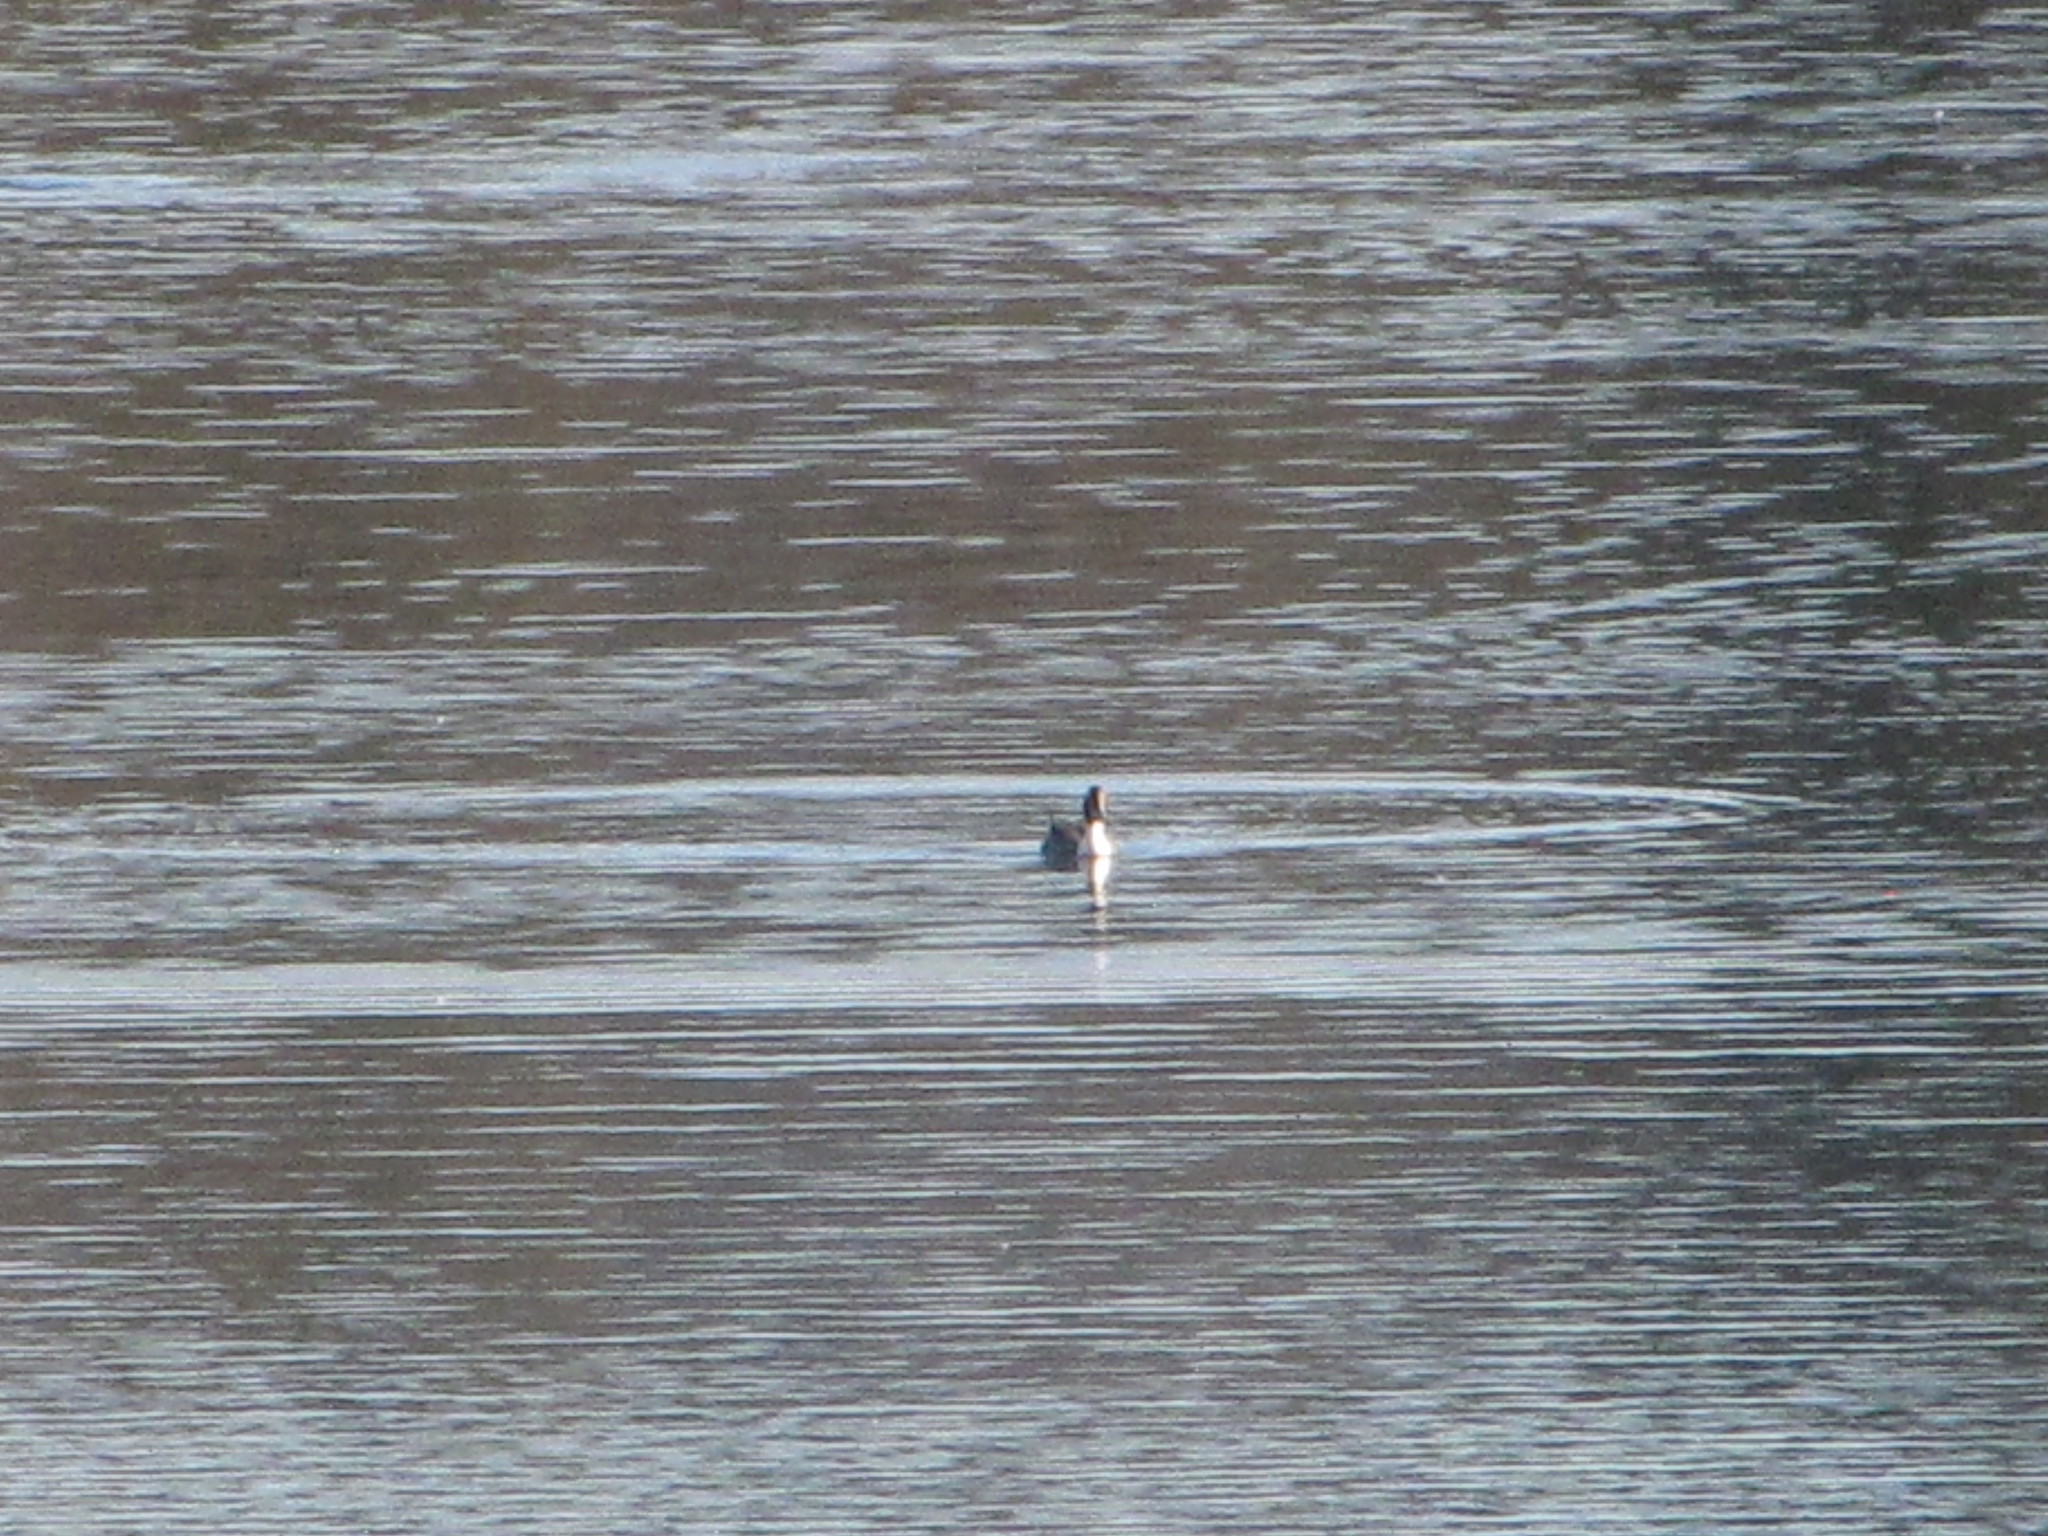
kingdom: Animalia
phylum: Chordata
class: Aves
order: Anseriformes
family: Anatidae
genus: Anas
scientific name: Anas acuta
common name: Northern pintail
